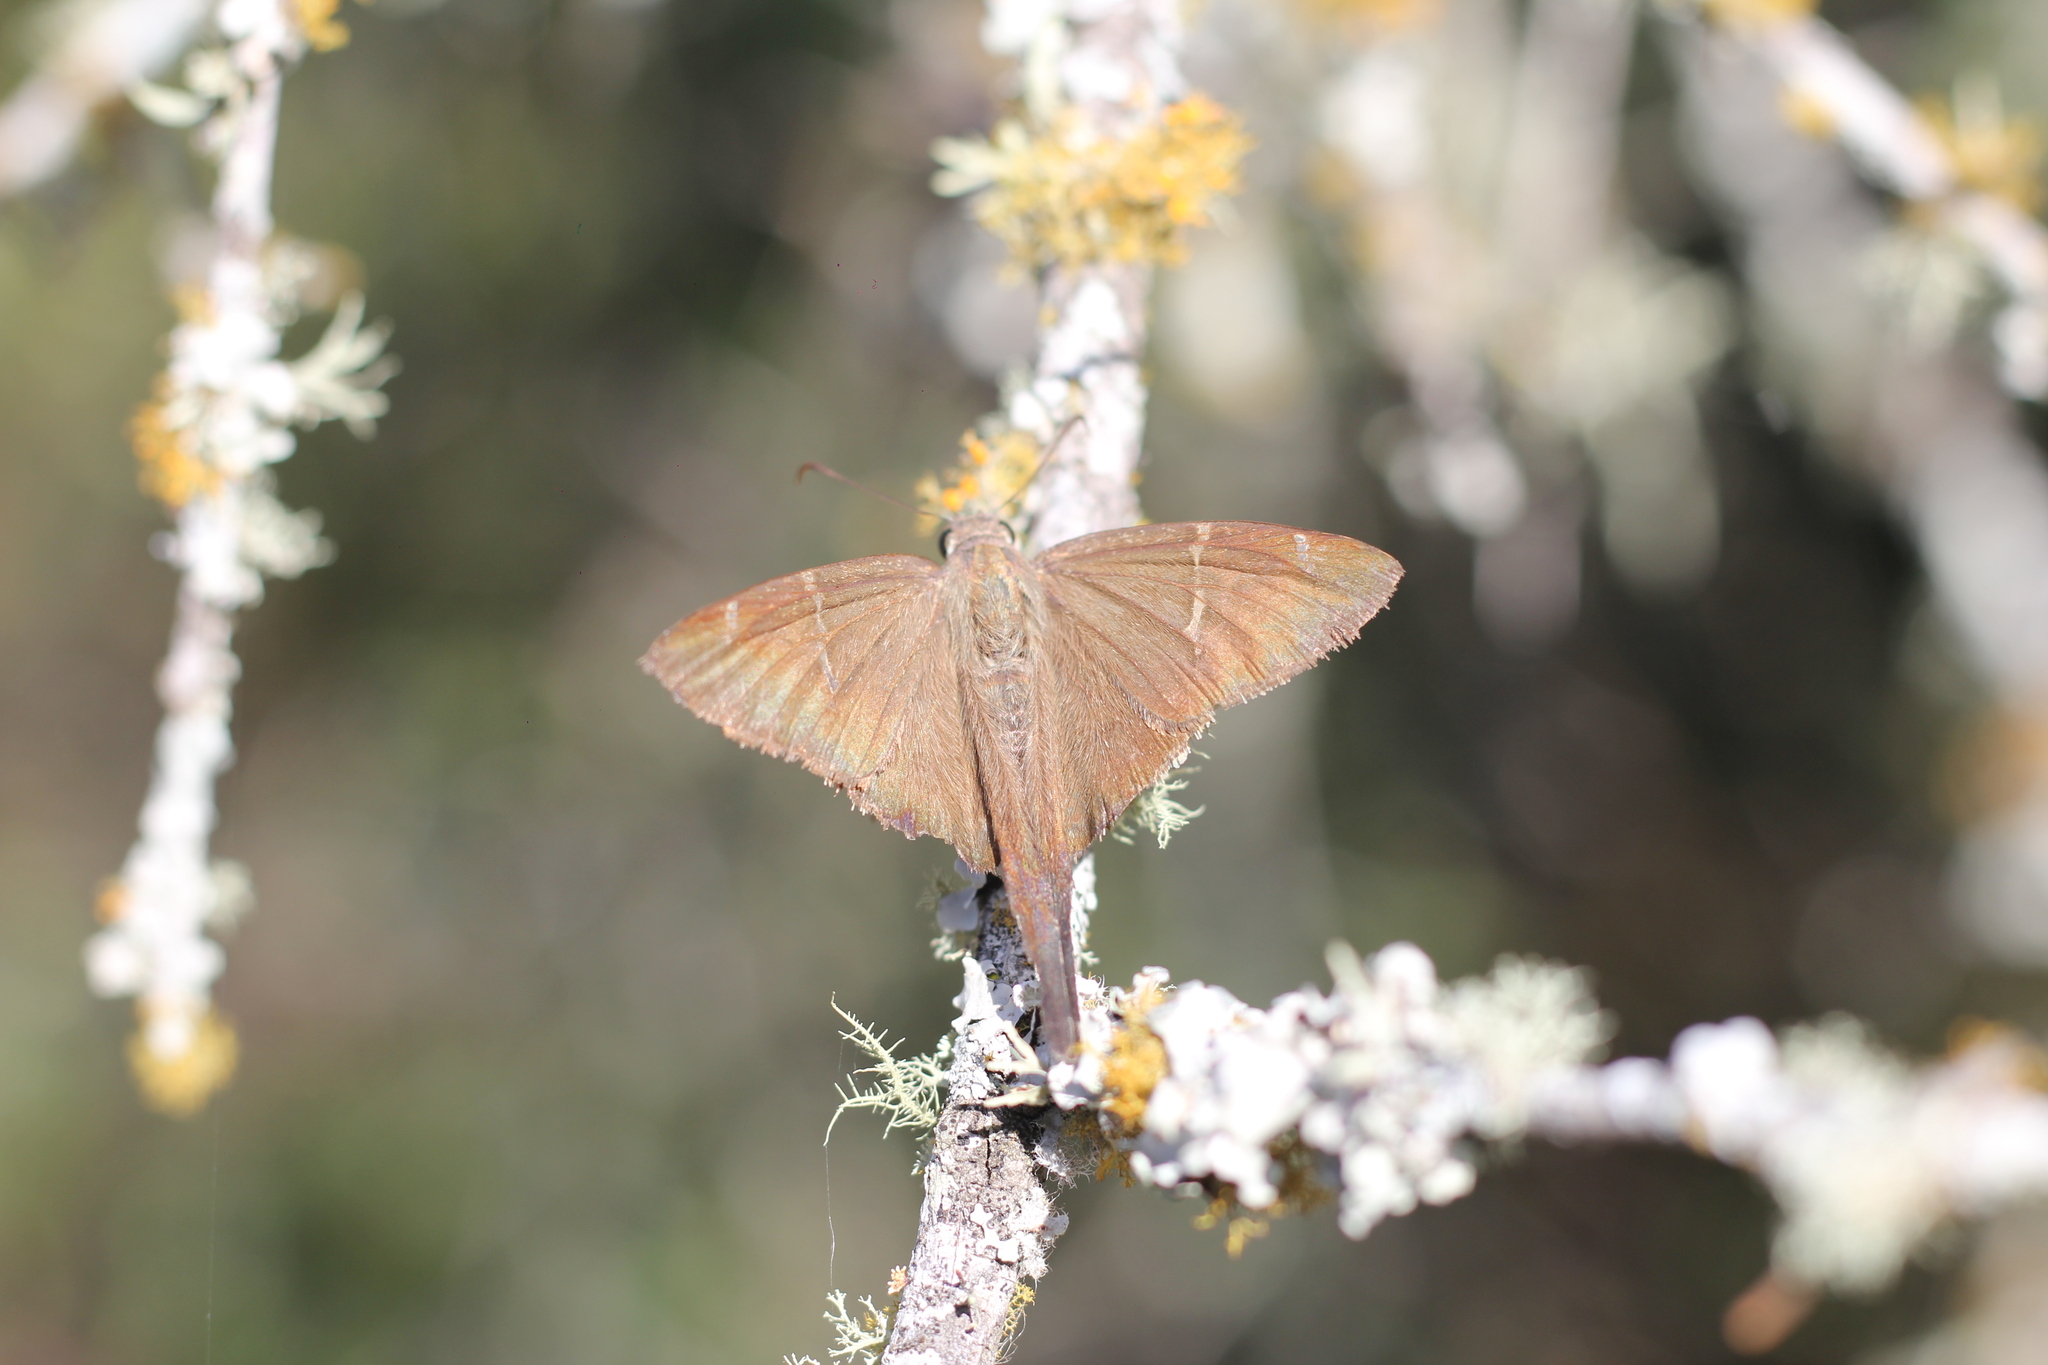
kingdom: Animalia
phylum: Arthropoda
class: Insecta
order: Lepidoptera
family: Hesperiidae
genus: Urbanus
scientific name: Urbanus teleus
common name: Teleus longtail
